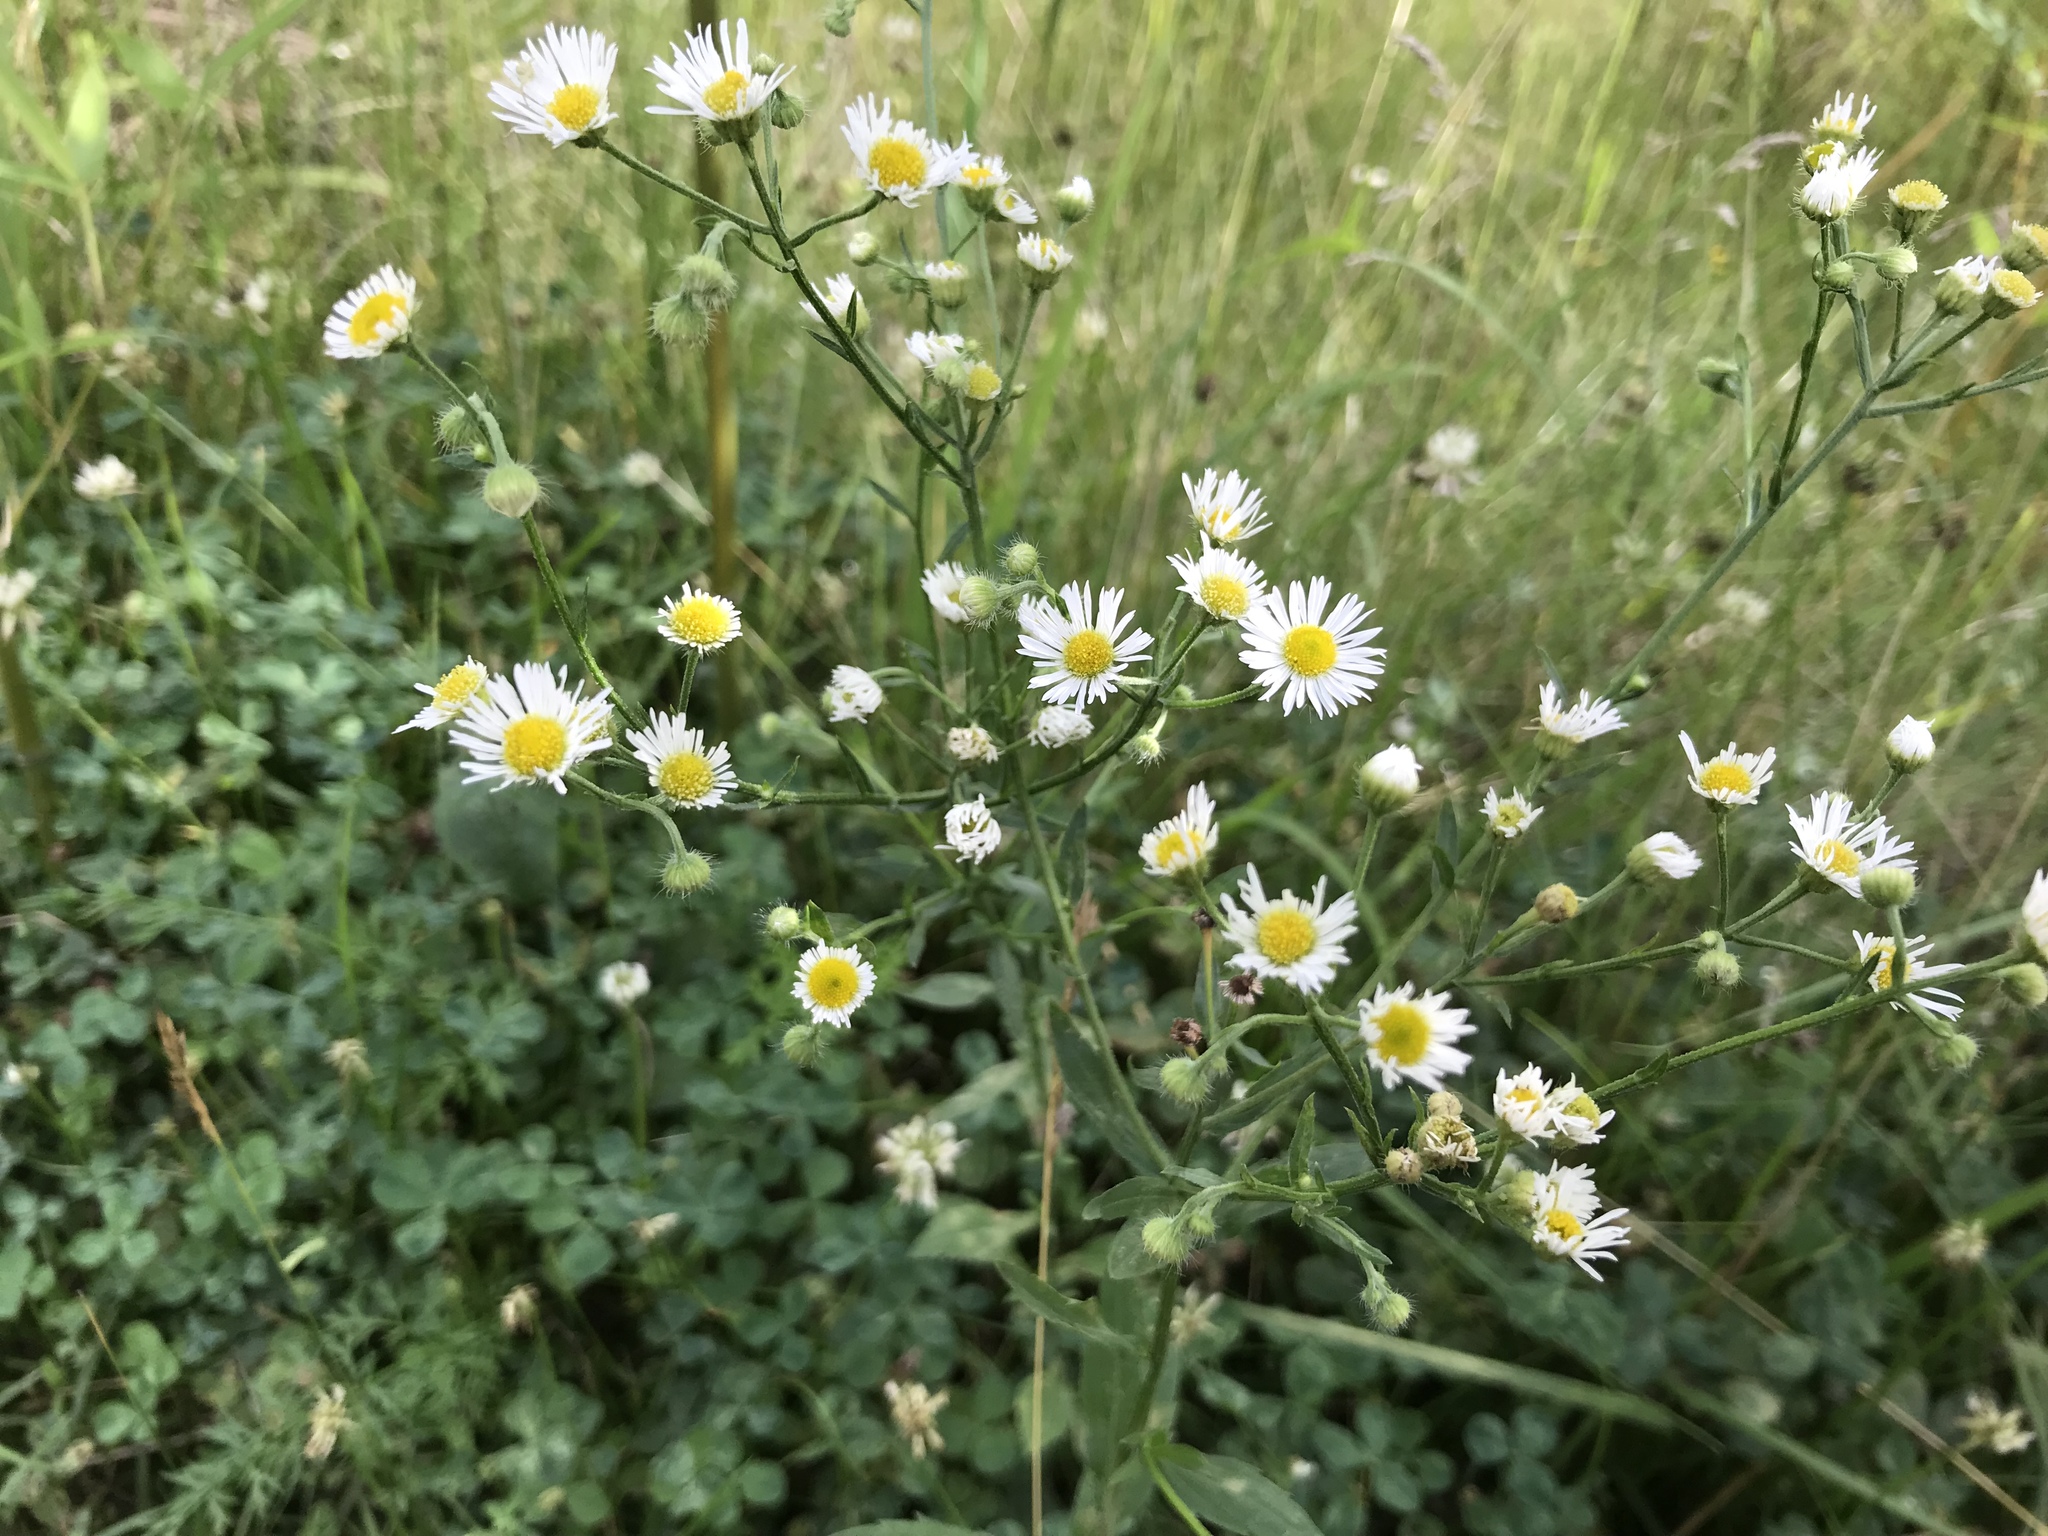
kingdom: Plantae
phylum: Tracheophyta
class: Magnoliopsida
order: Asterales
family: Asteraceae
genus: Erigeron
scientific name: Erigeron strigosus
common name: Common eastern fleabane
